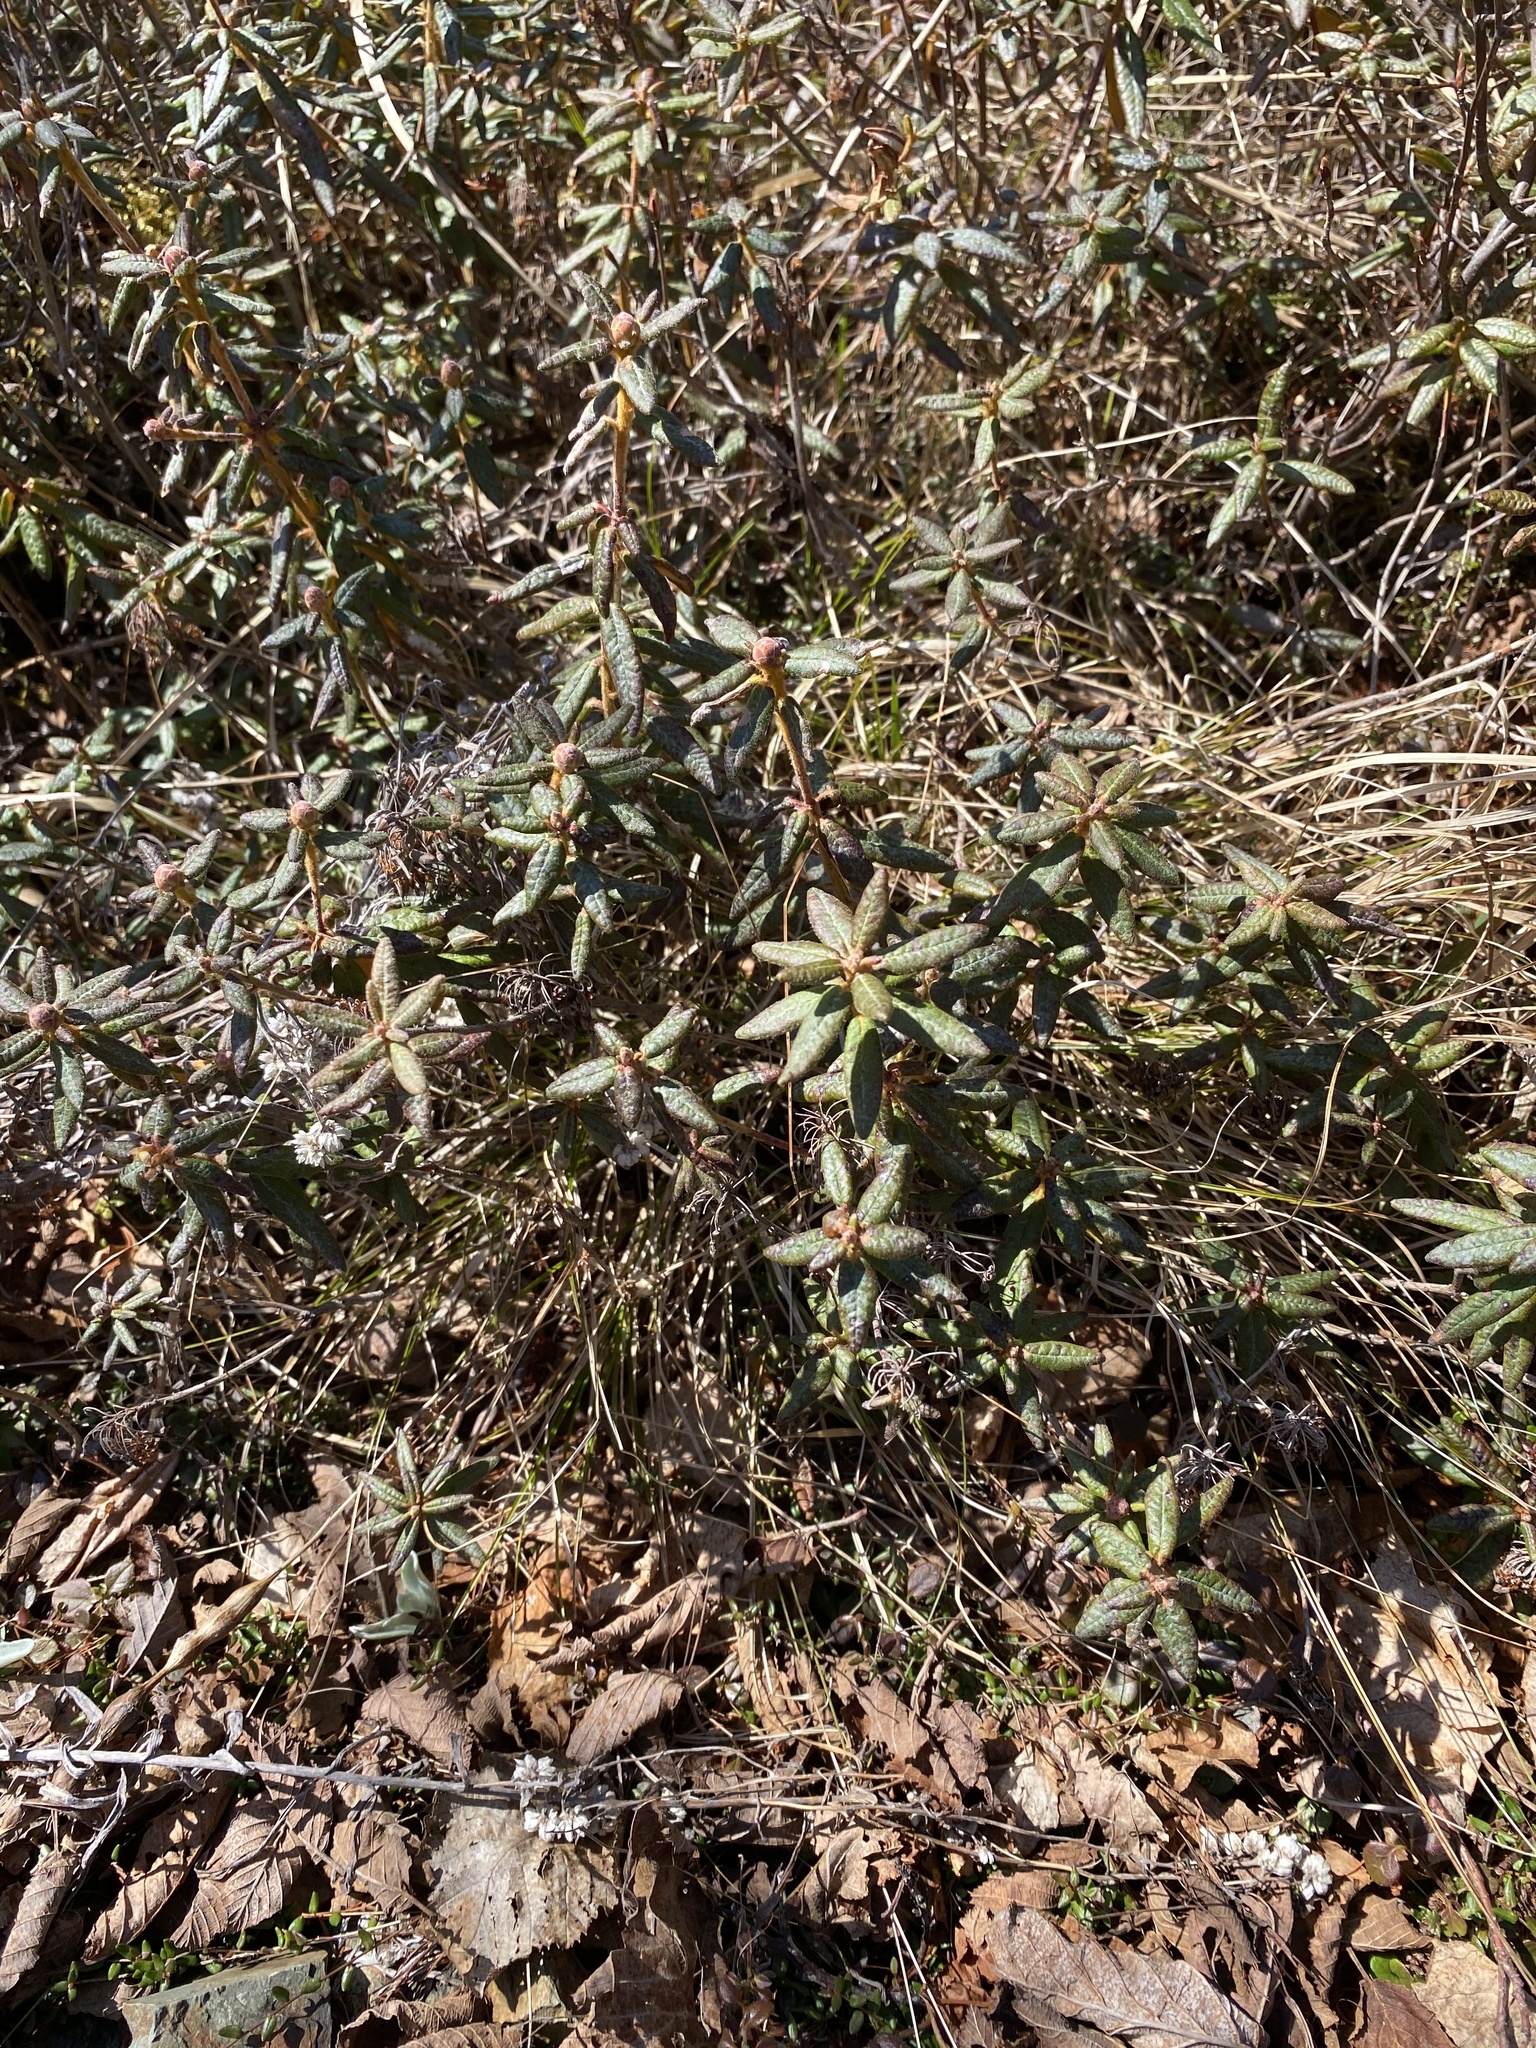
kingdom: Plantae
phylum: Tracheophyta
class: Magnoliopsida
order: Ericales
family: Ericaceae
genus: Rhododendron
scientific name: Rhododendron groenlandicum
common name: Bog labrador tea
